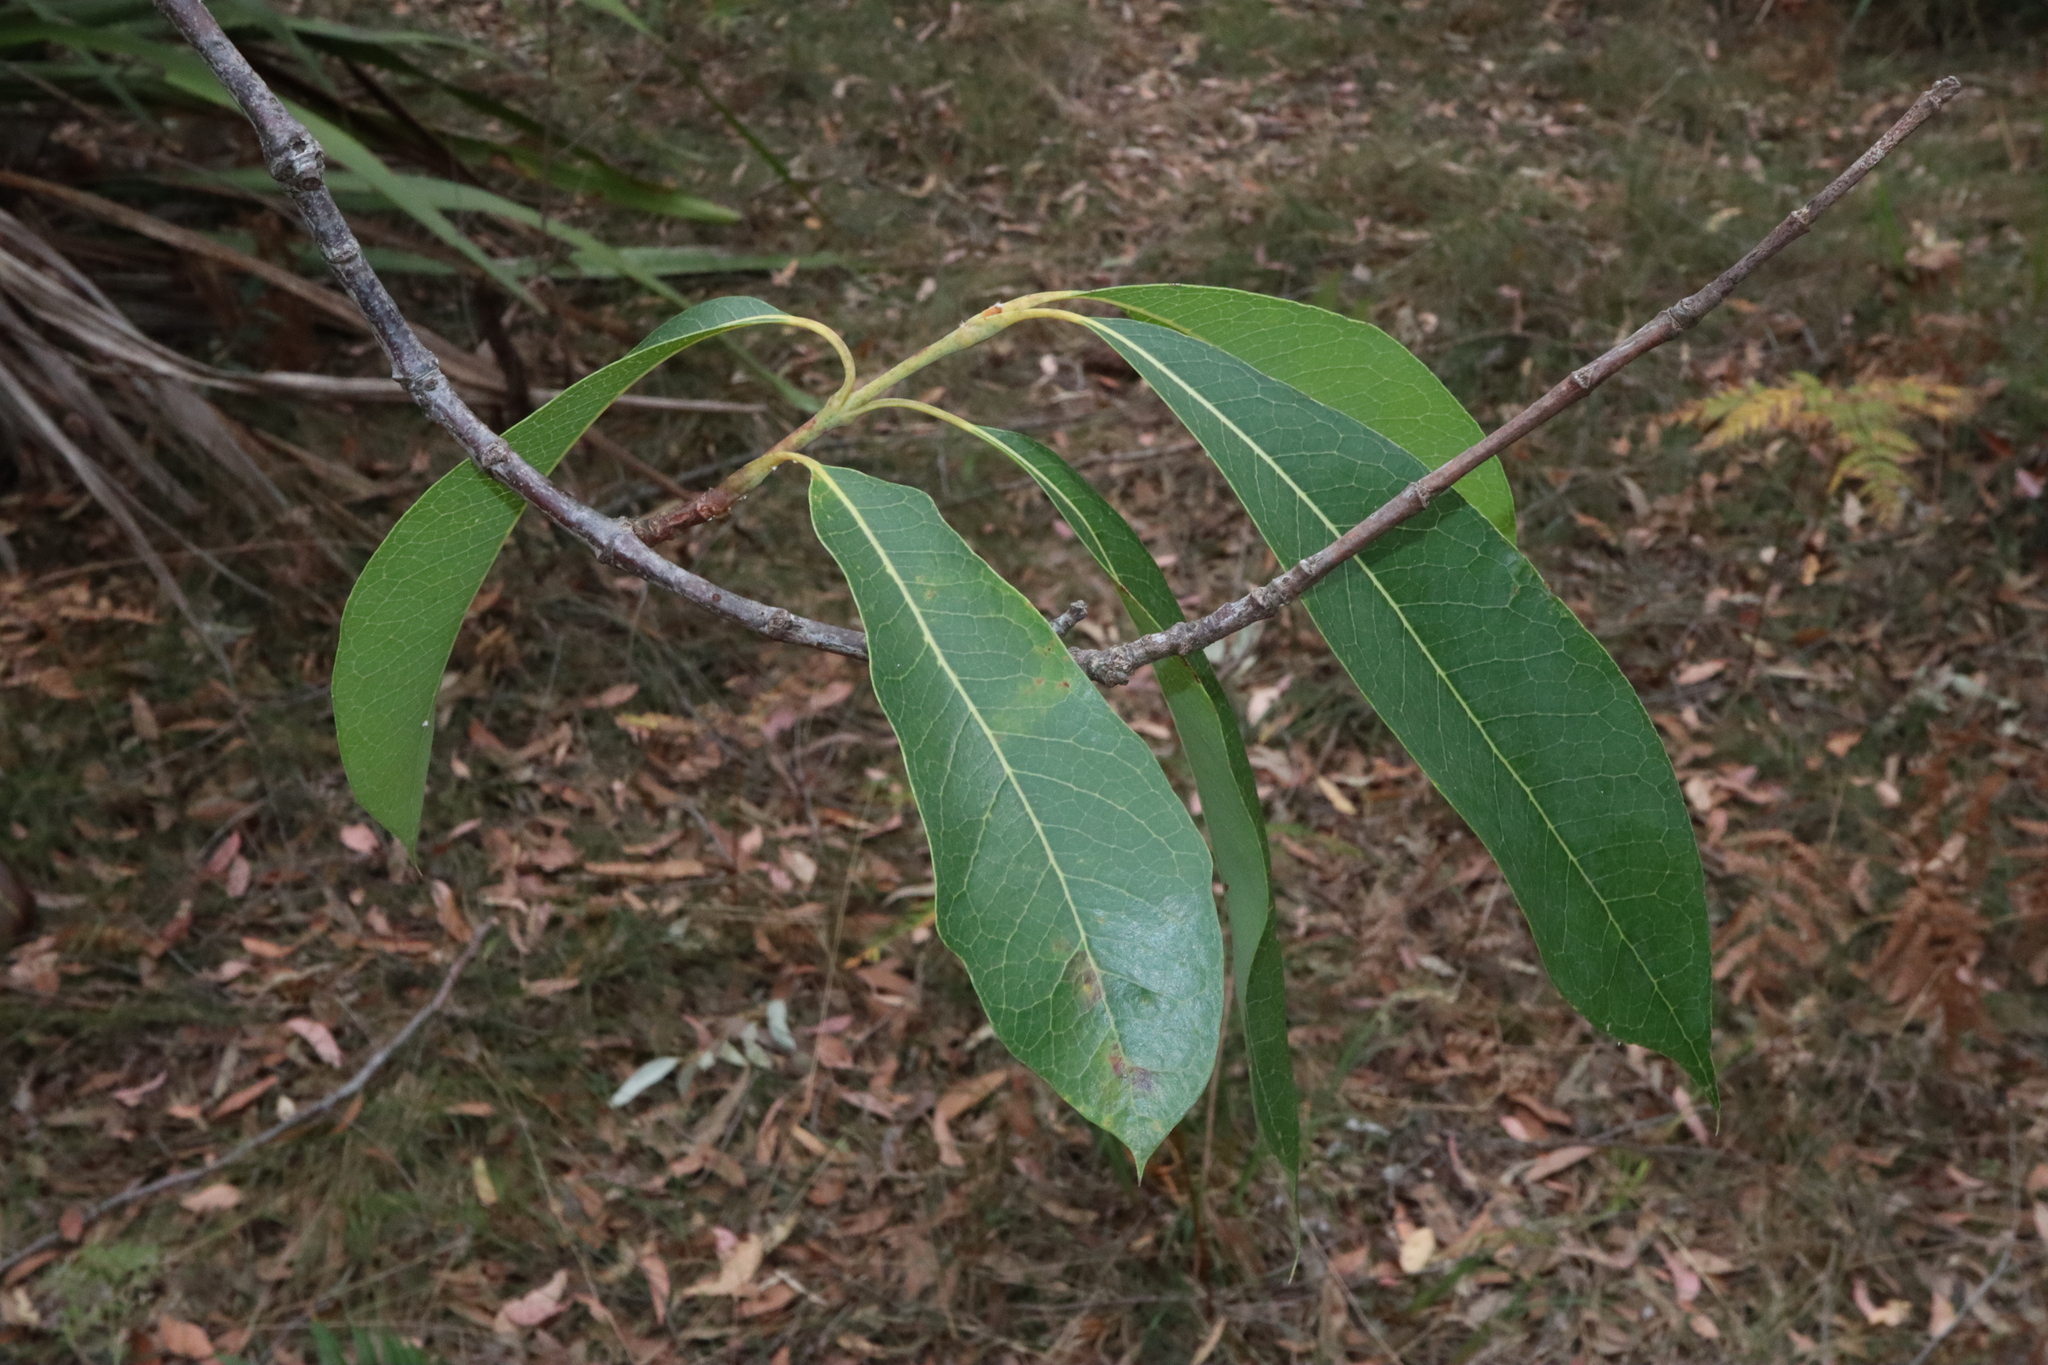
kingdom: Plantae
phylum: Tracheophyta
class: Magnoliopsida
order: Proteales
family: Proteaceae
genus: Xylomelum
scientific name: Xylomelum pyriforme
